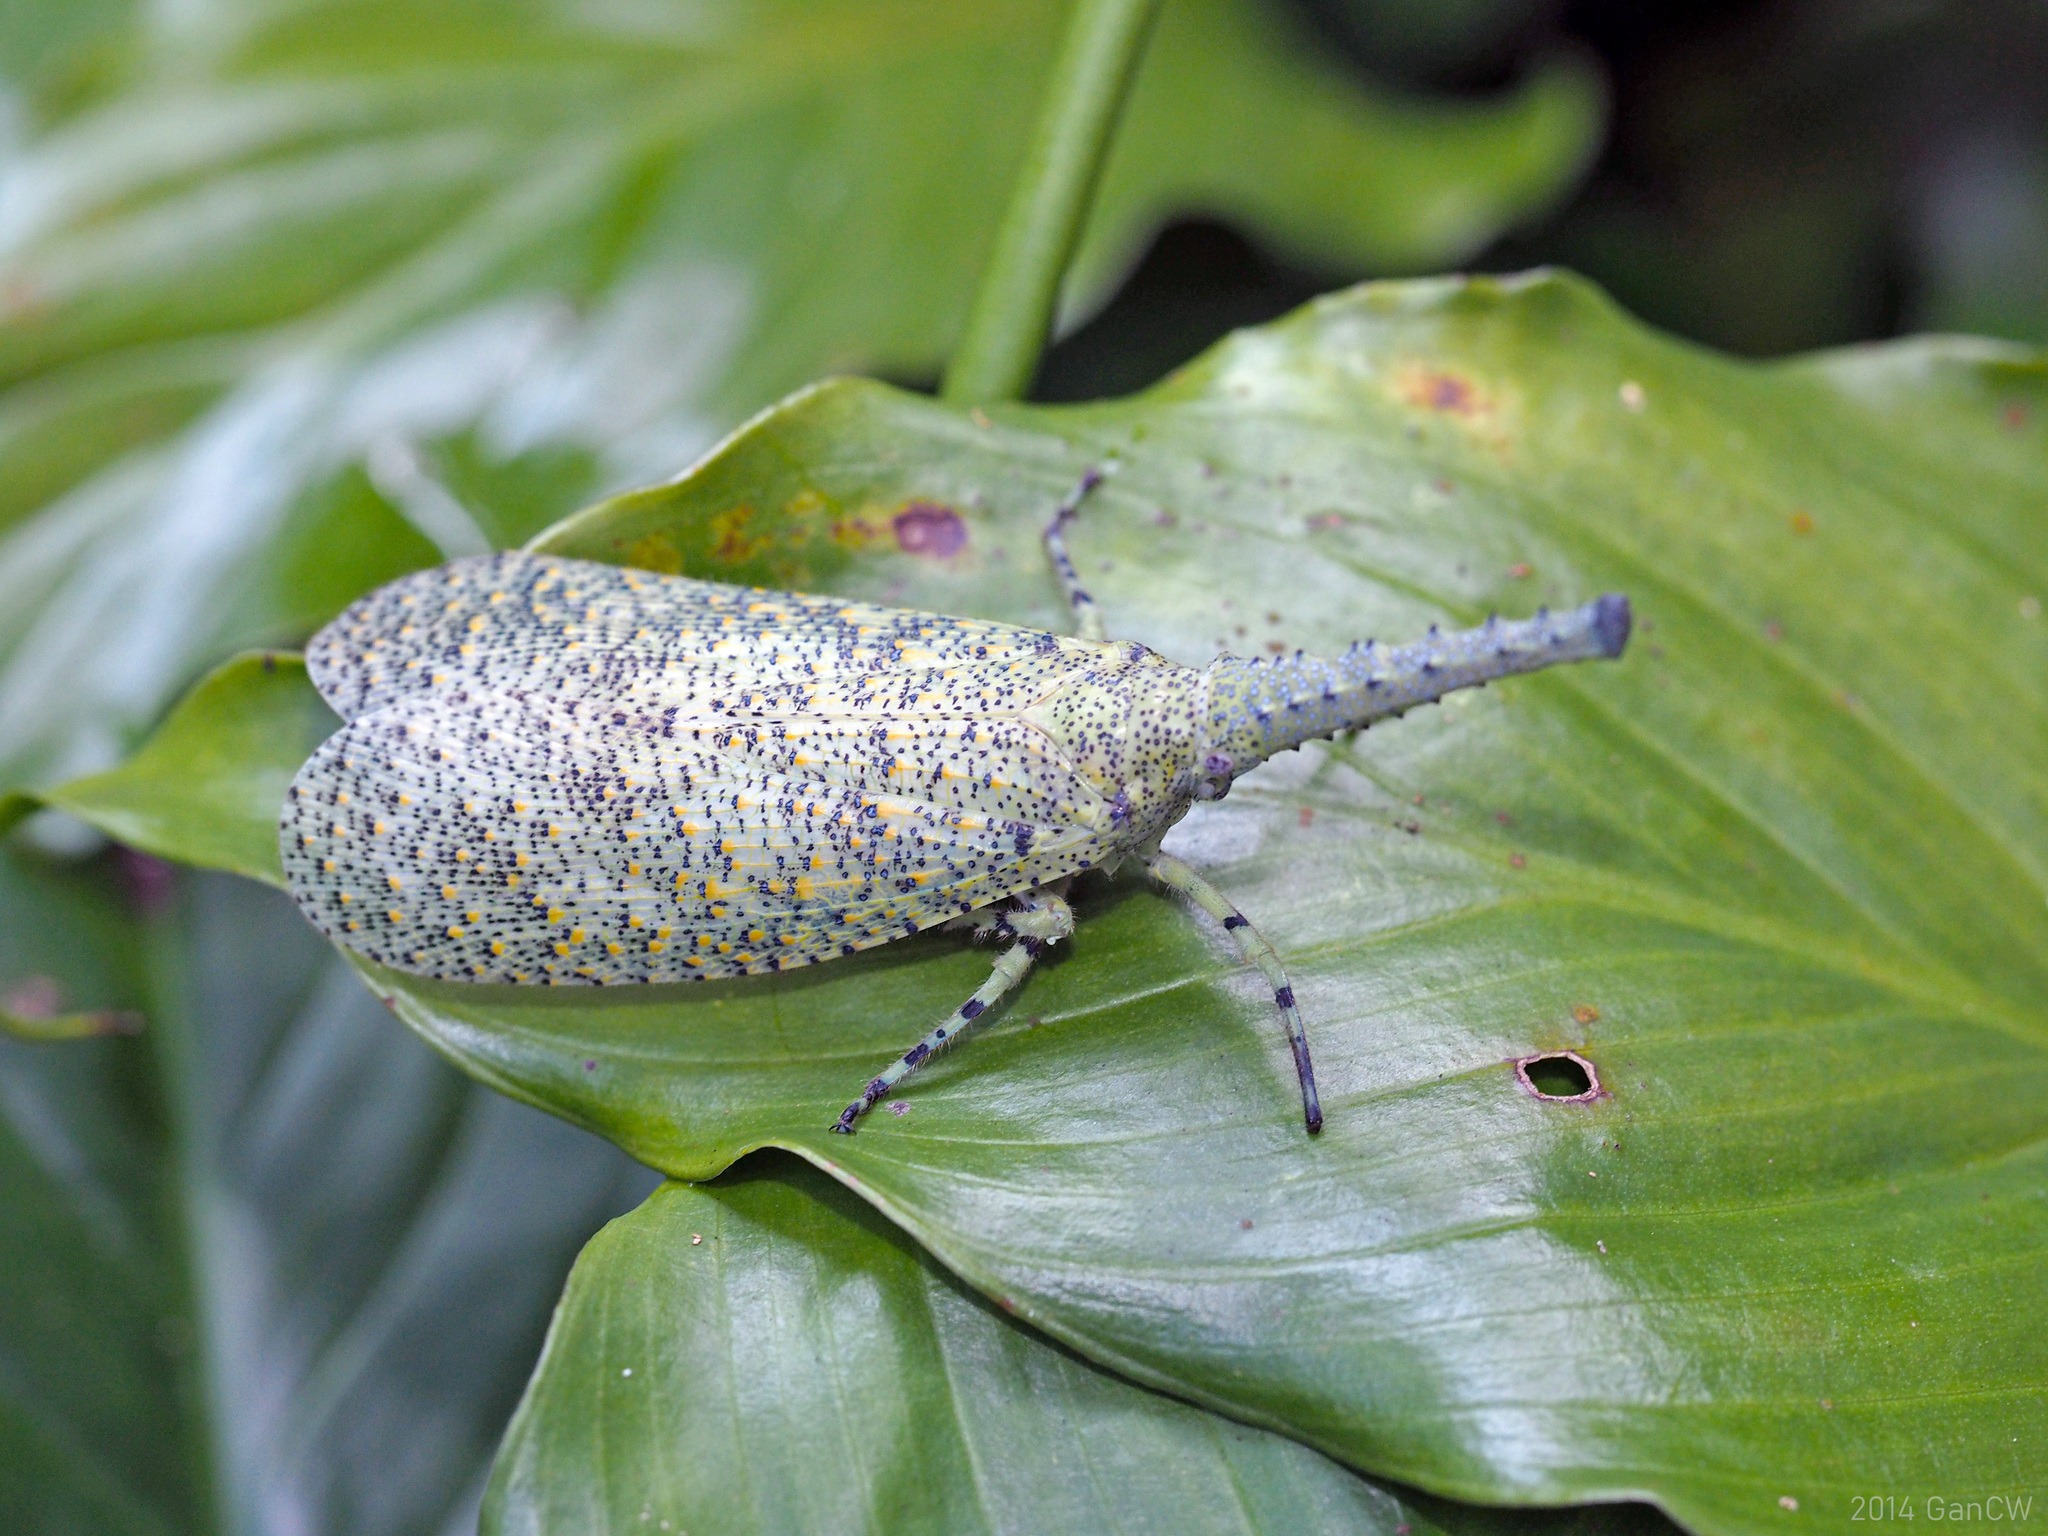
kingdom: Animalia
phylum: Arthropoda
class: Insecta
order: Hemiptera
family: Fulgoridae
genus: Zanna
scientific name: Zanna nobilis
